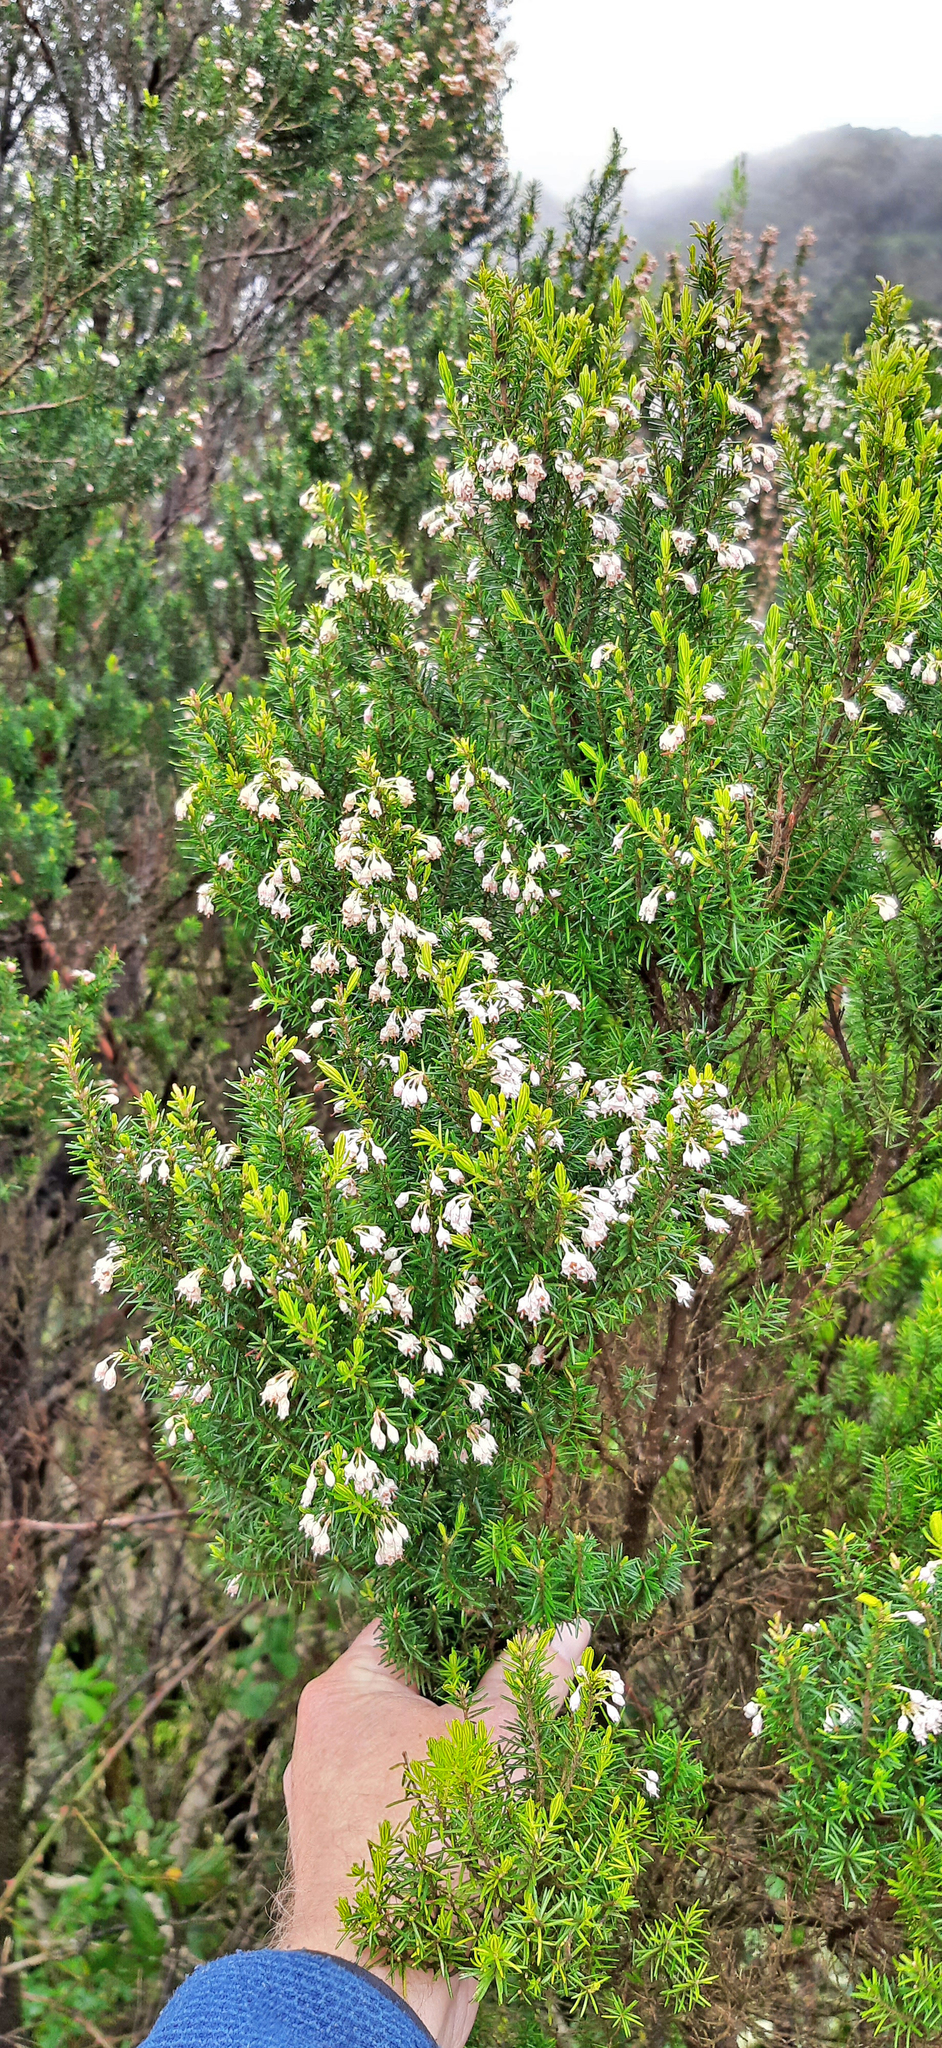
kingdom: Plantae
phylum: Tracheophyta
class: Magnoliopsida
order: Ericales
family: Ericaceae
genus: Erica
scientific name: Erica canariensis
